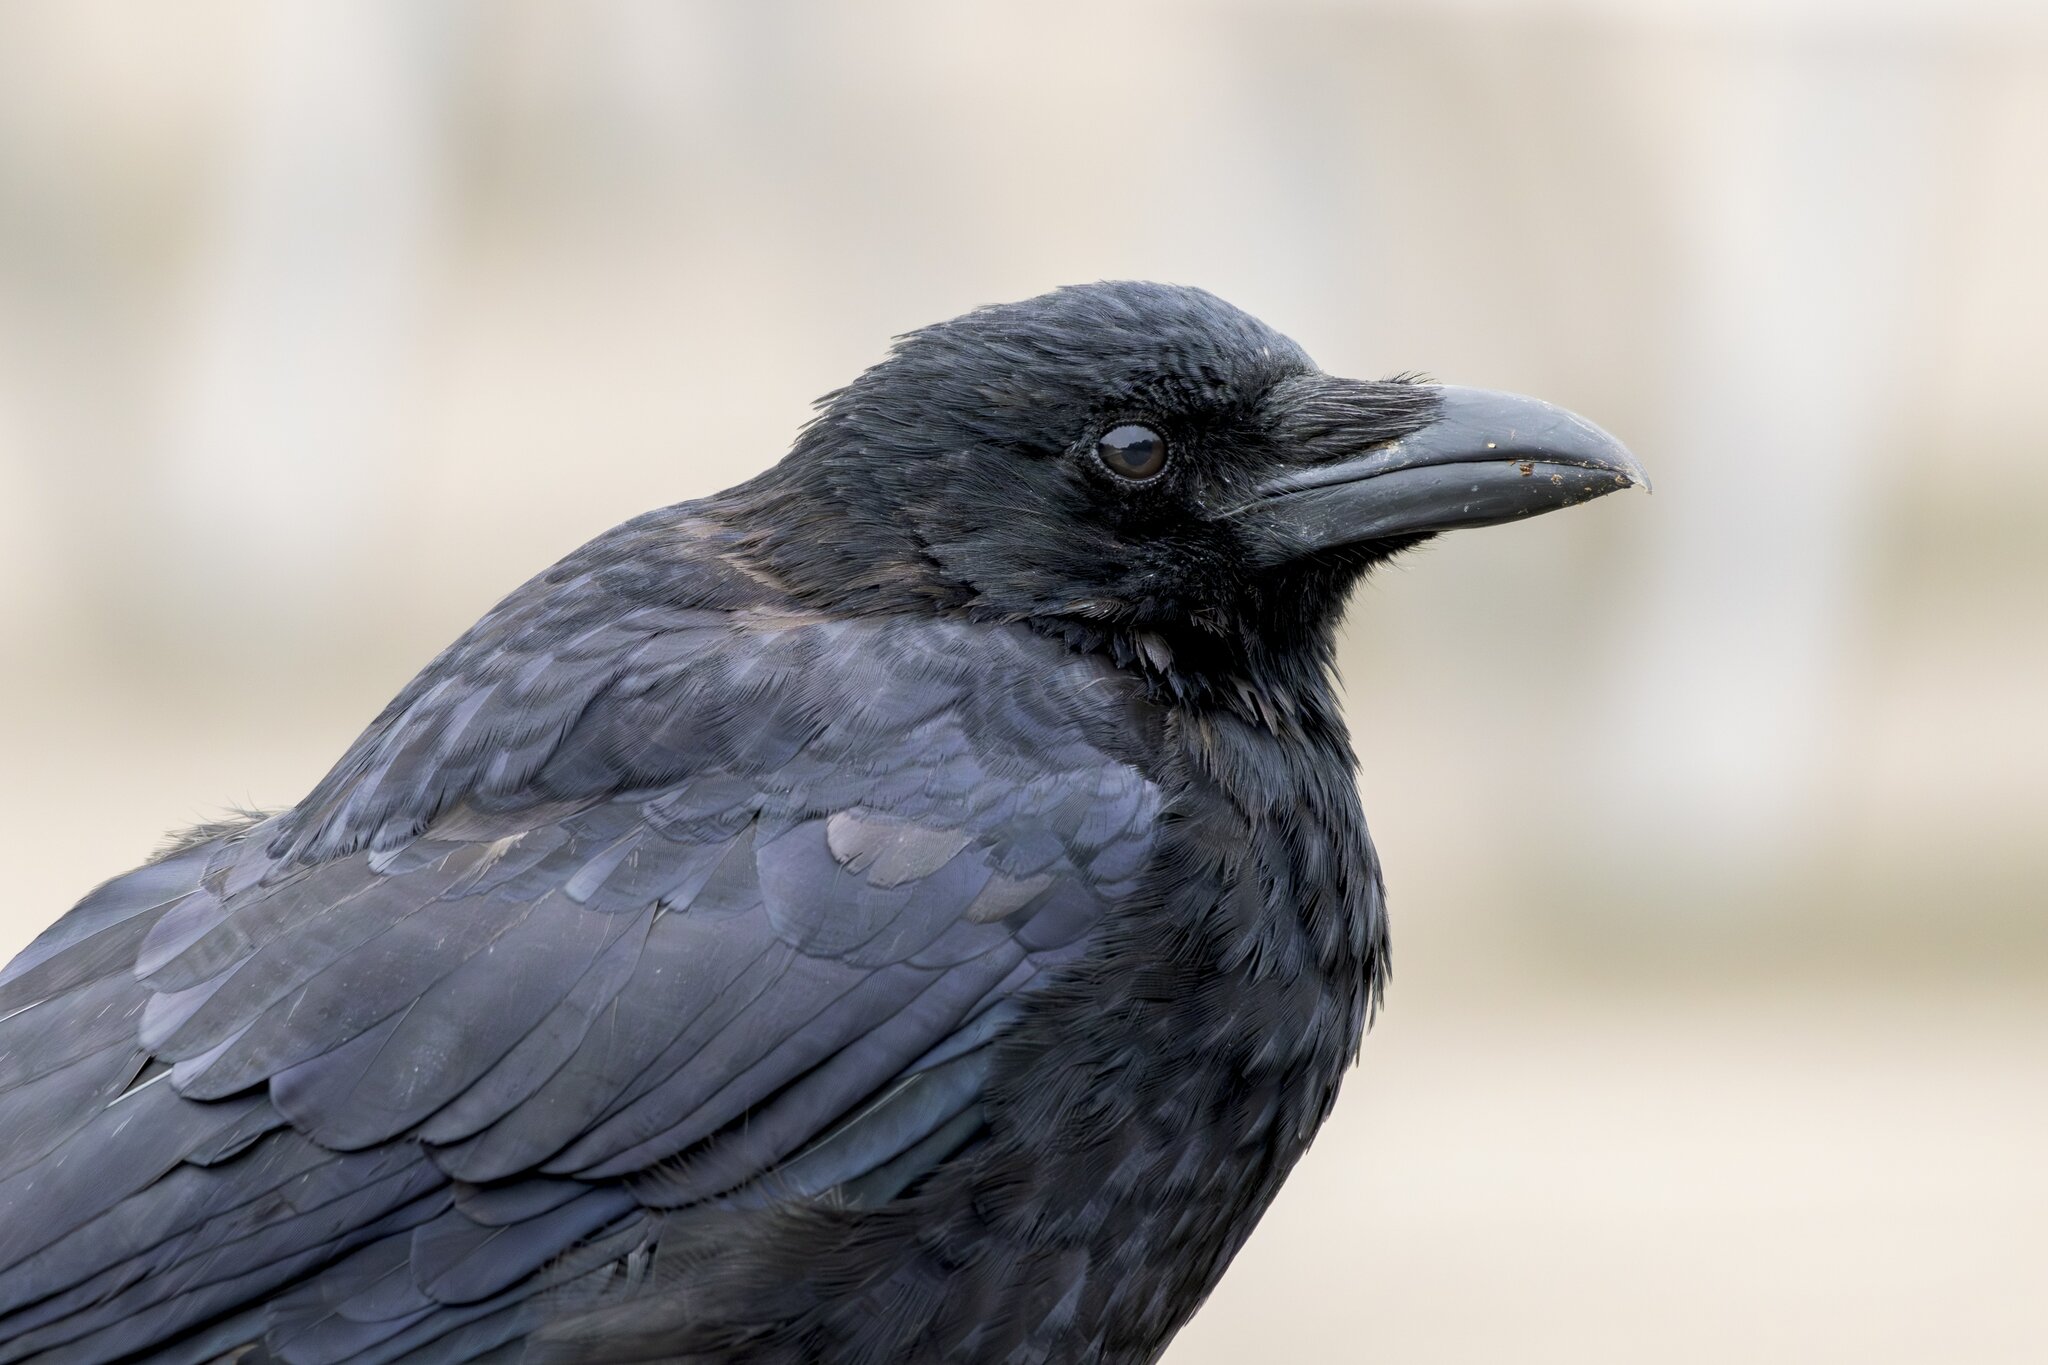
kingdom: Animalia
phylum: Chordata
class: Aves
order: Passeriformes
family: Corvidae
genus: Corvus
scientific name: Corvus corone
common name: Carrion crow
